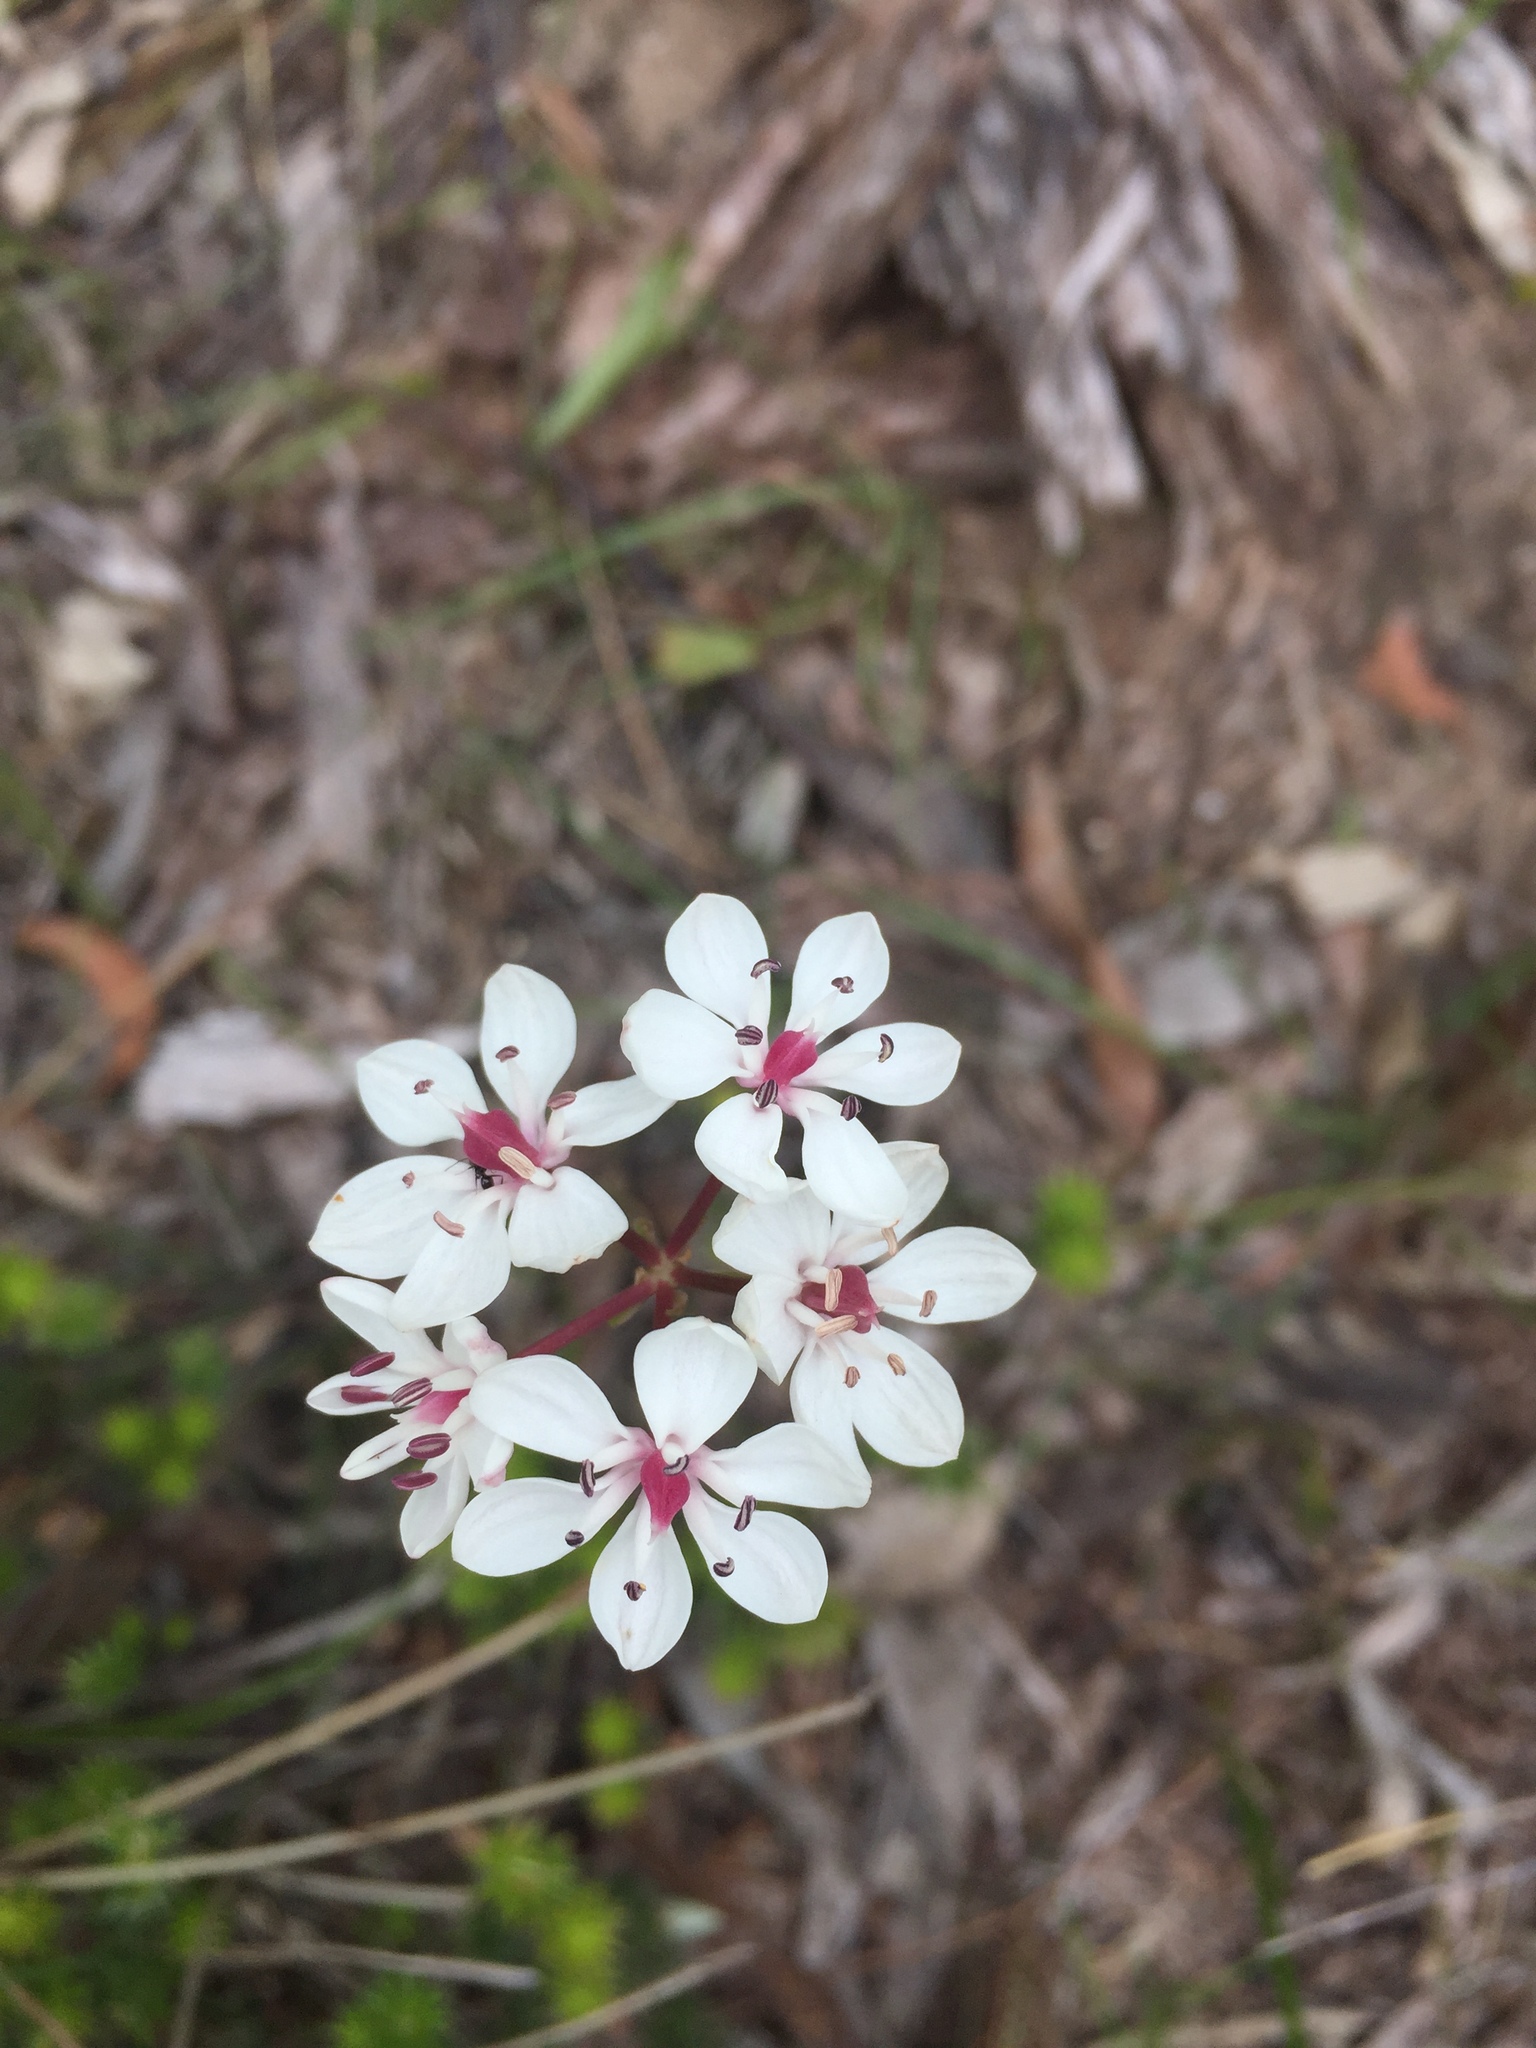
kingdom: Plantae
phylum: Tracheophyta
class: Liliopsida
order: Liliales
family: Colchicaceae
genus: Burchardia
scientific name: Burchardia umbellata
